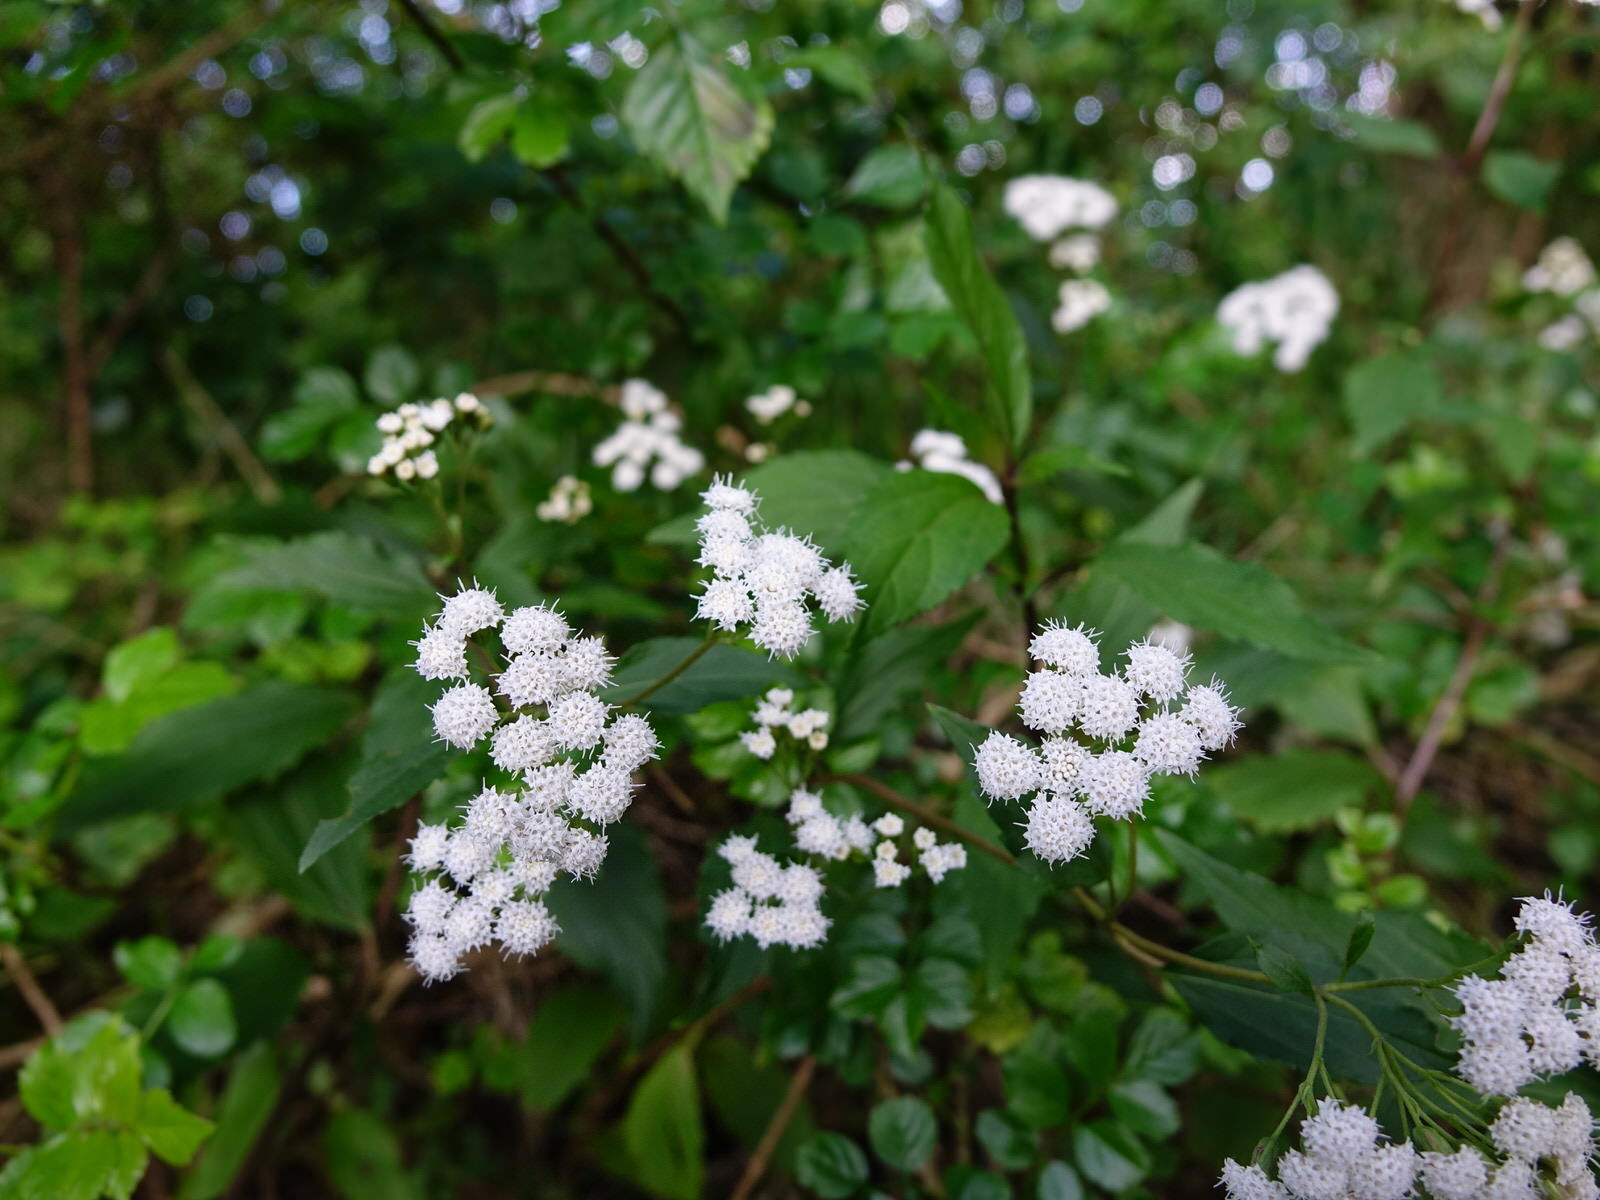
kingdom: Animalia
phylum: Arthropoda
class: Insecta
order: Diptera
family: Tephritidae
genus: Procecidochares
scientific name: Procecidochares alani
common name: Fruit fly
